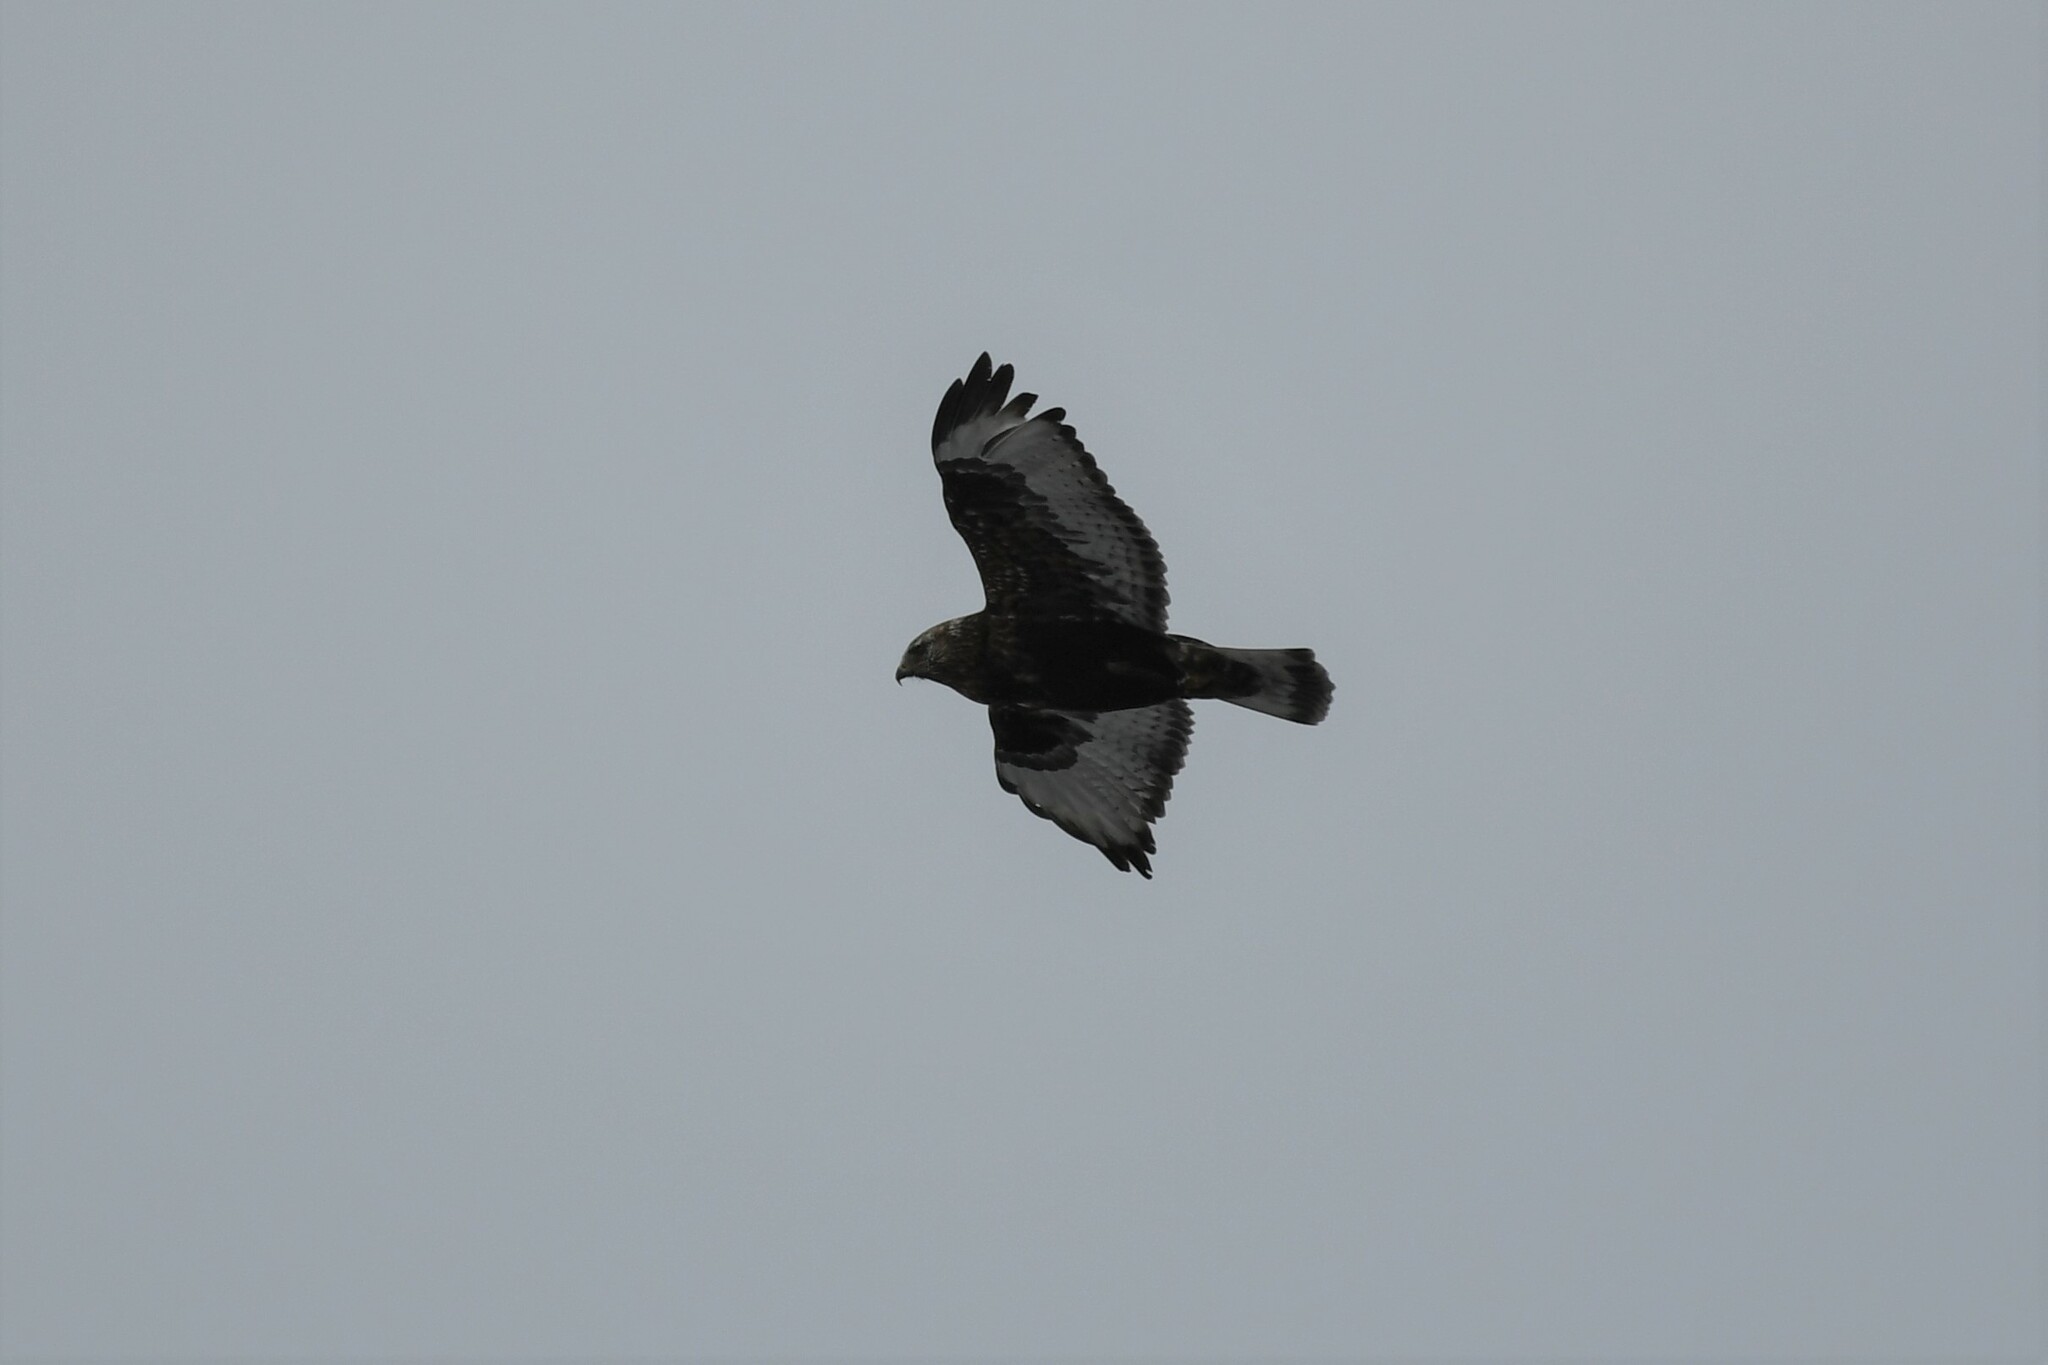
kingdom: Animalia
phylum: Chordata
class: Aves
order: Accipitriformes
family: Accipitridae
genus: Buteo
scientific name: Buteo lagopus
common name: Rough-legged buzzard
